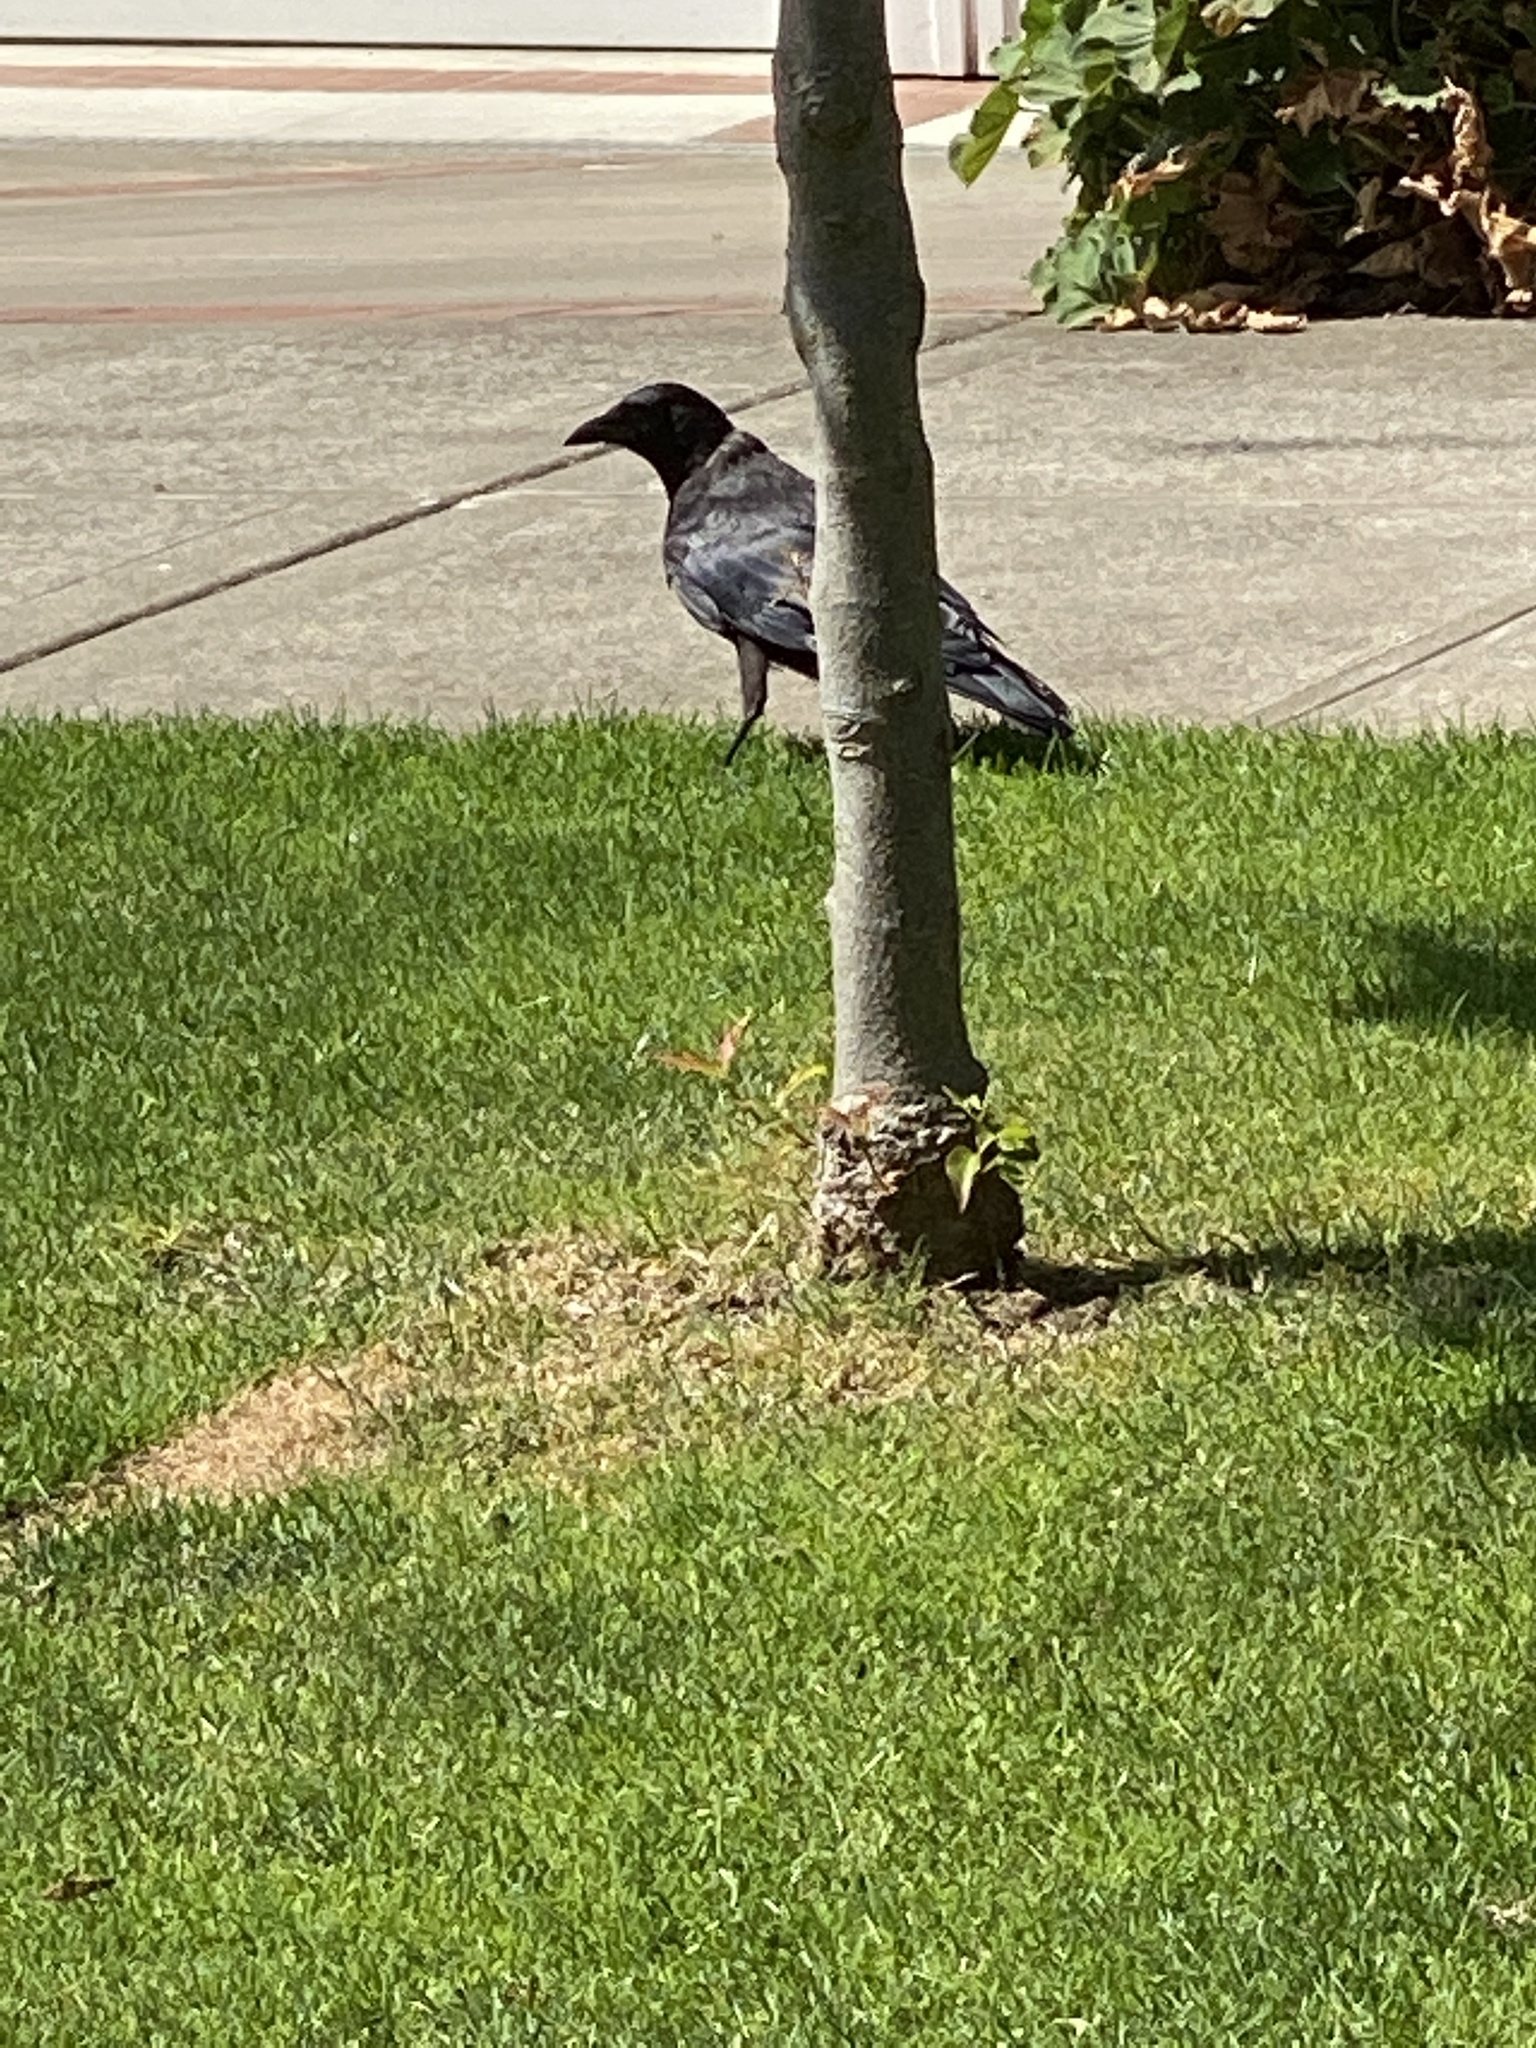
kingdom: Animalia
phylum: Chordata
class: Aves
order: Passeriformes
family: Corvidae
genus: Corvus
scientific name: Corvus brachyrhynchos
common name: American crow
